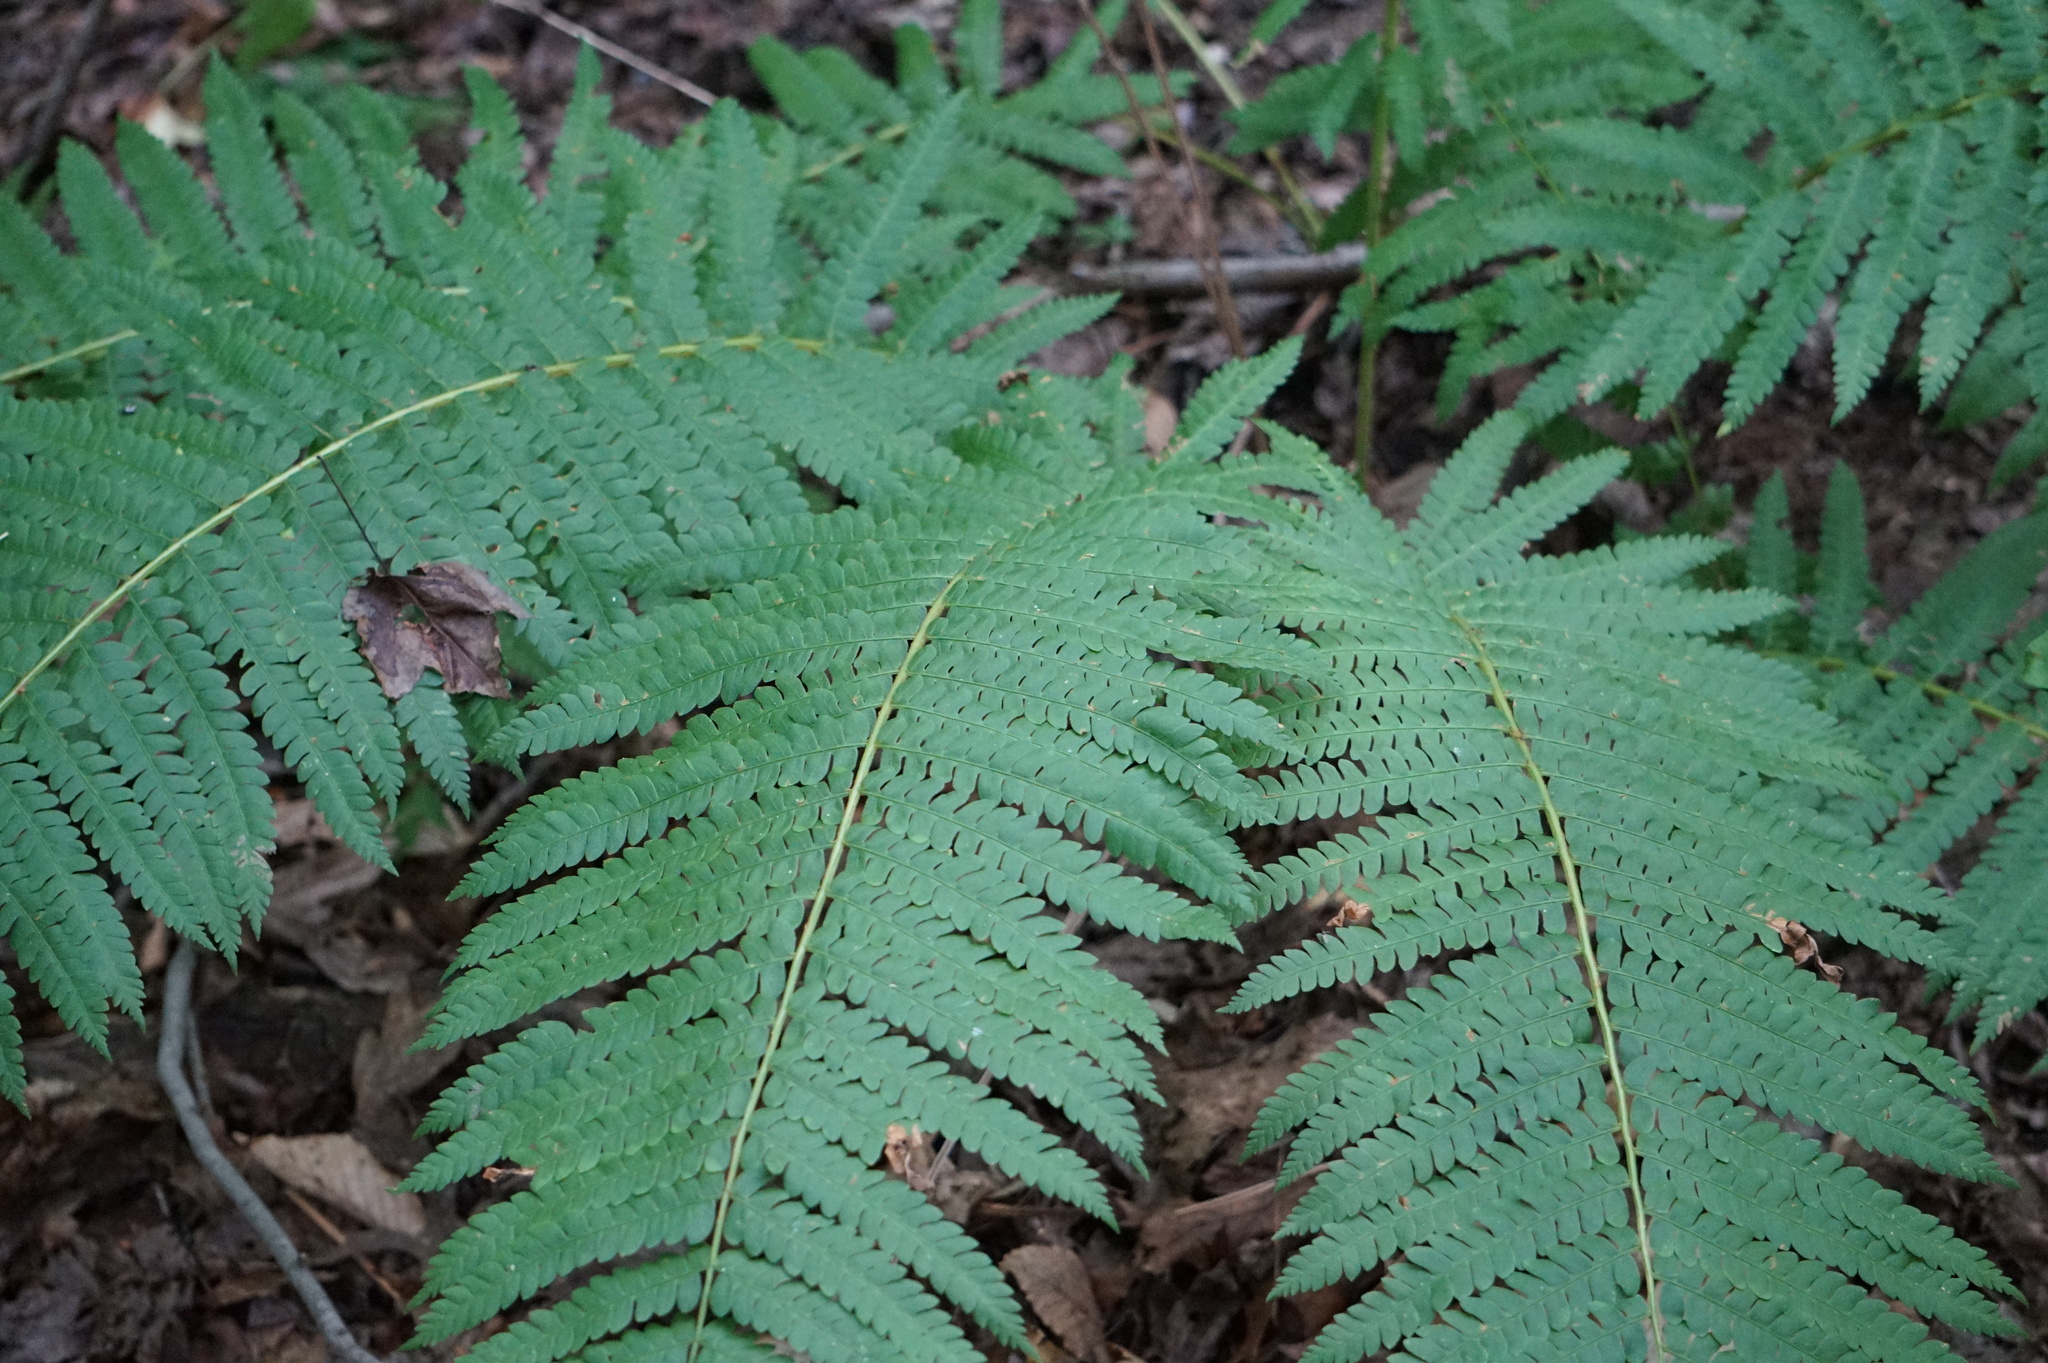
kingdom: Plantae
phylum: Tracheophyta
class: Polypodiopsida
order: Osmundales
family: Osmundaceae
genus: Osmundastrum
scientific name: Osmundastrum cinnamomeum
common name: Cinnamon fern
